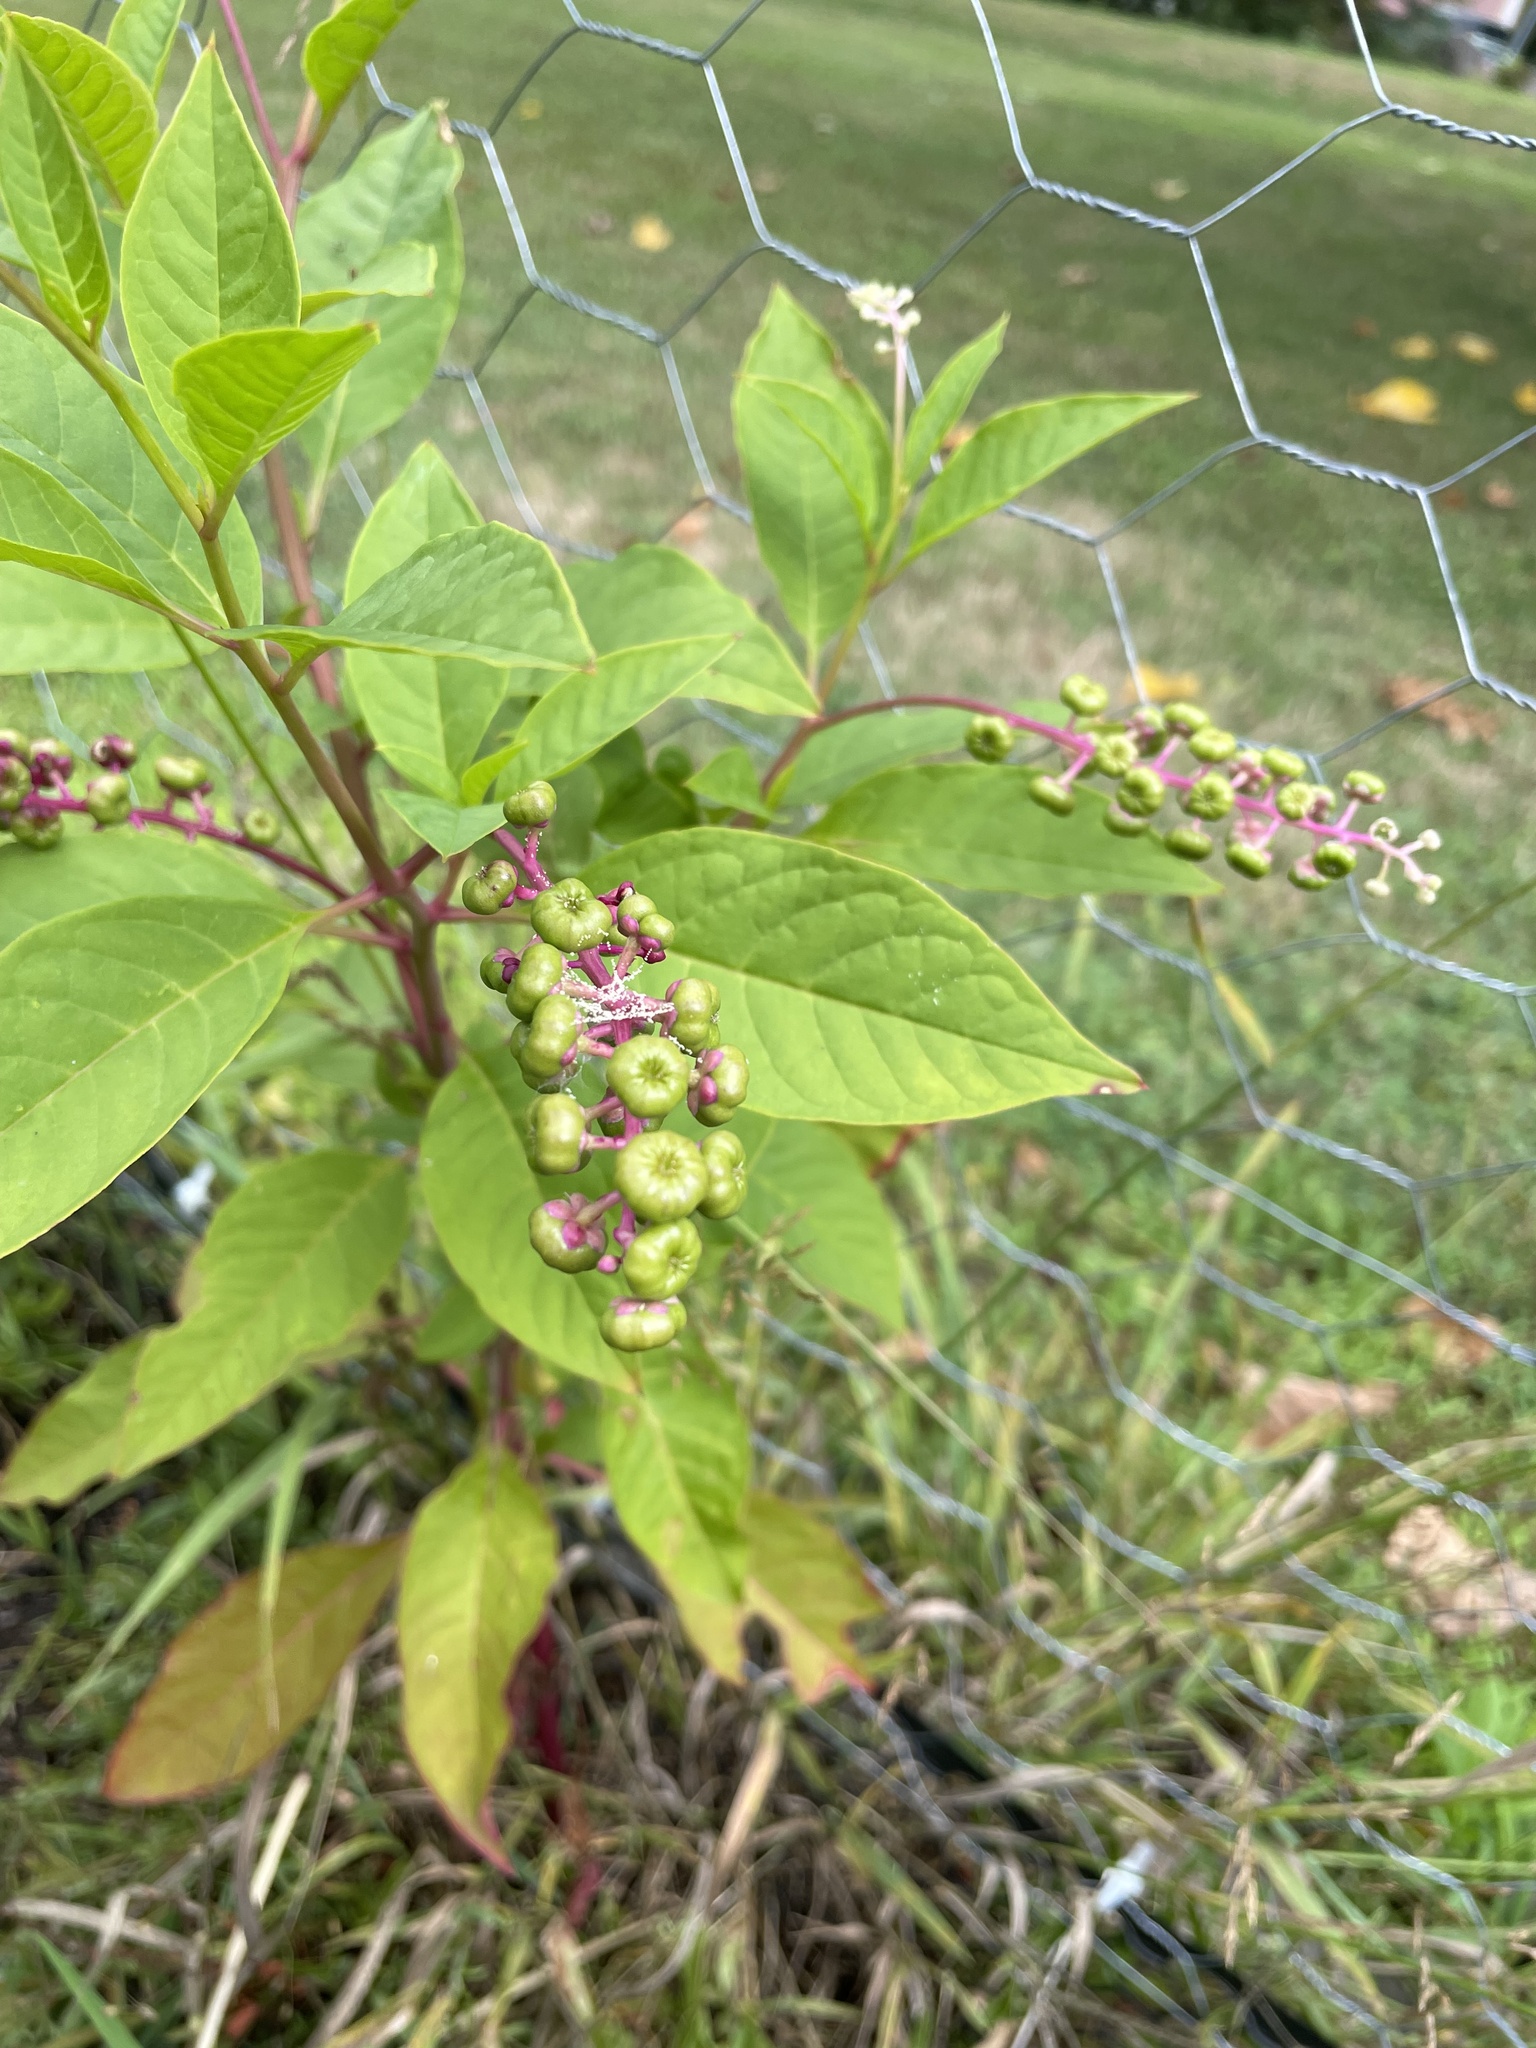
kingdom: Plantae
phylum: Tracheophyta
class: Magnoliopsida
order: Caryophyllales
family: Phytolaccaceae
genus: Phytolacca
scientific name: Phytolacca americana
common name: American pokeweed
